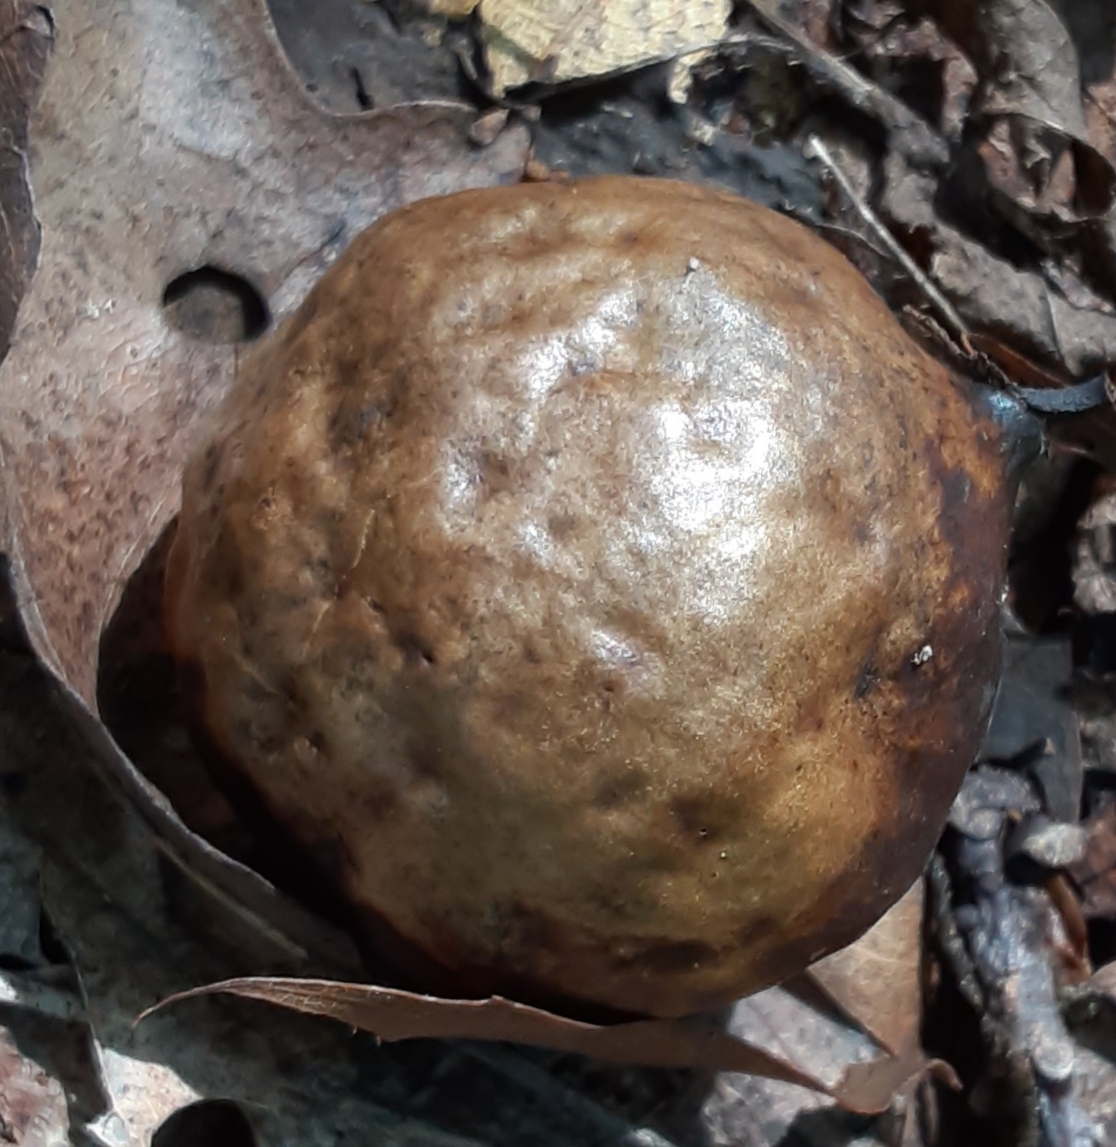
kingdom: Animalia
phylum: Arthropoda
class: Insecta
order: Hymenoptera
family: Cynipidae
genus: Amphibolips
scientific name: Amphibolips
